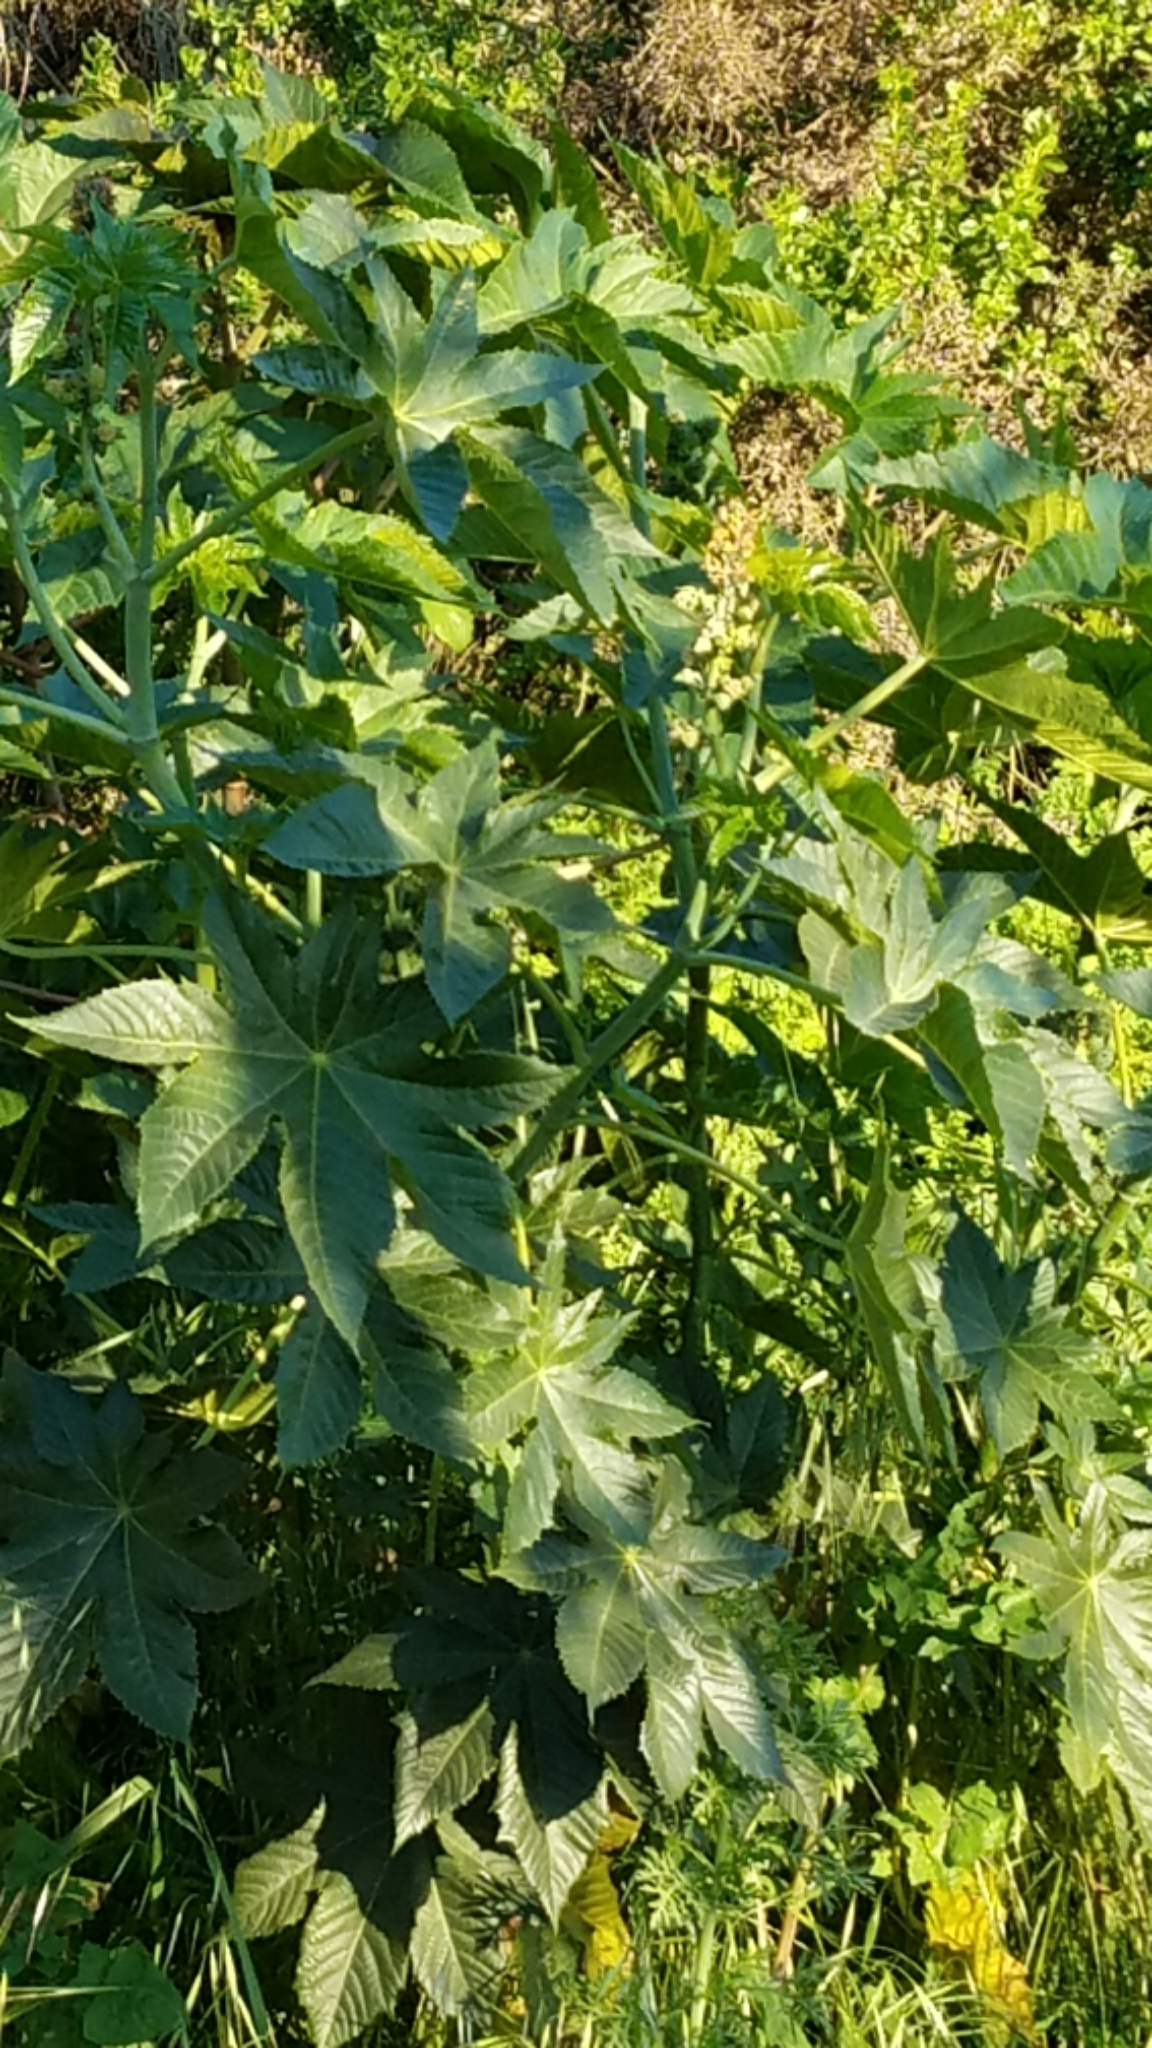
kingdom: Plantae
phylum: Tracheophyta
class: Magnoliopsida
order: Malpighiales
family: Euphorbiaceae
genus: Ricinus
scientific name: Ricinus communis
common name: Castor-oil-plant
